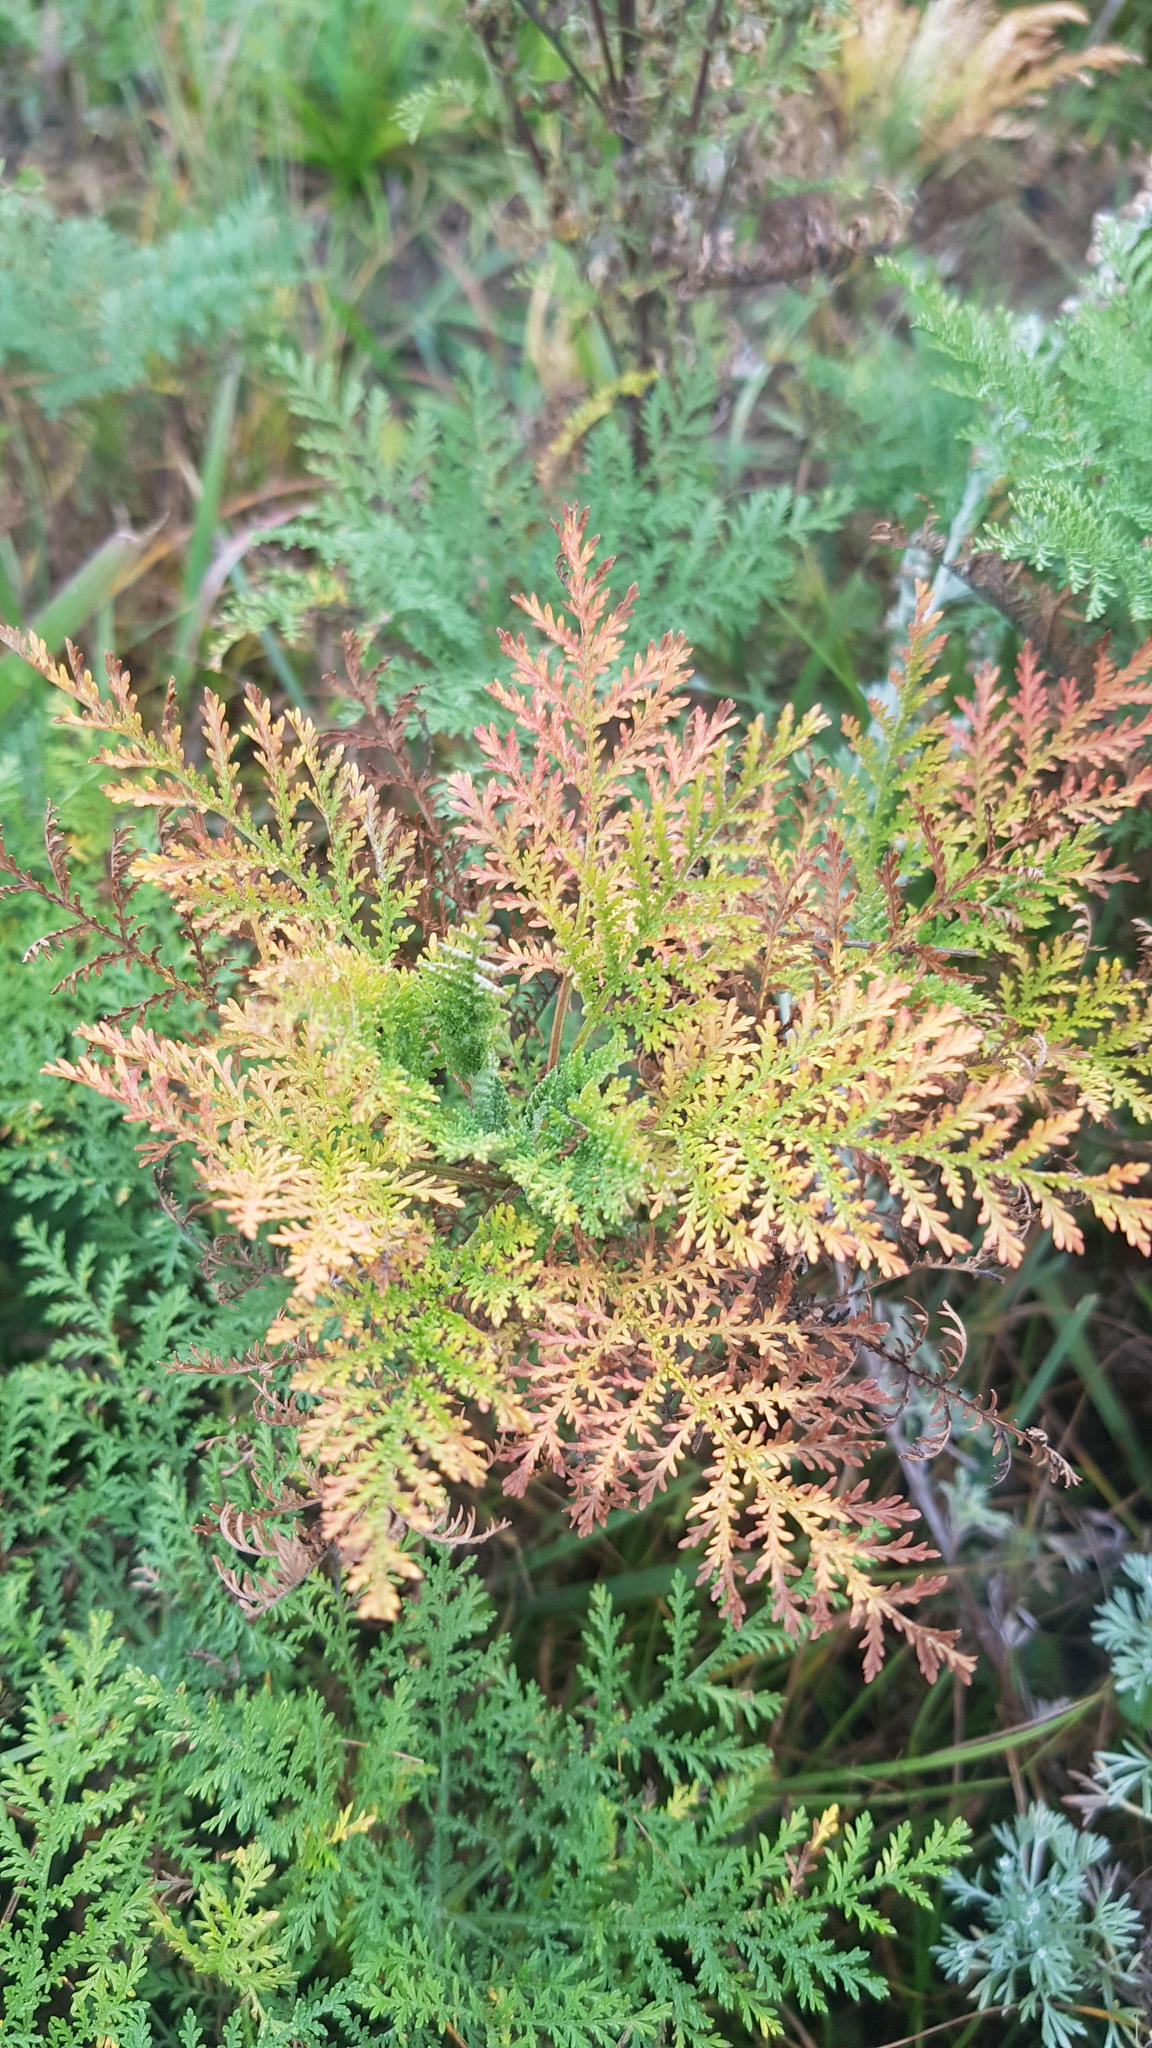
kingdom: Plantae
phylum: Tracheophyta
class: Magnoliopsida
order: Asterales
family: Asteraceae
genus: Artemisia
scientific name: Artemisia gmelinii
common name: Gmelin's wormwood
